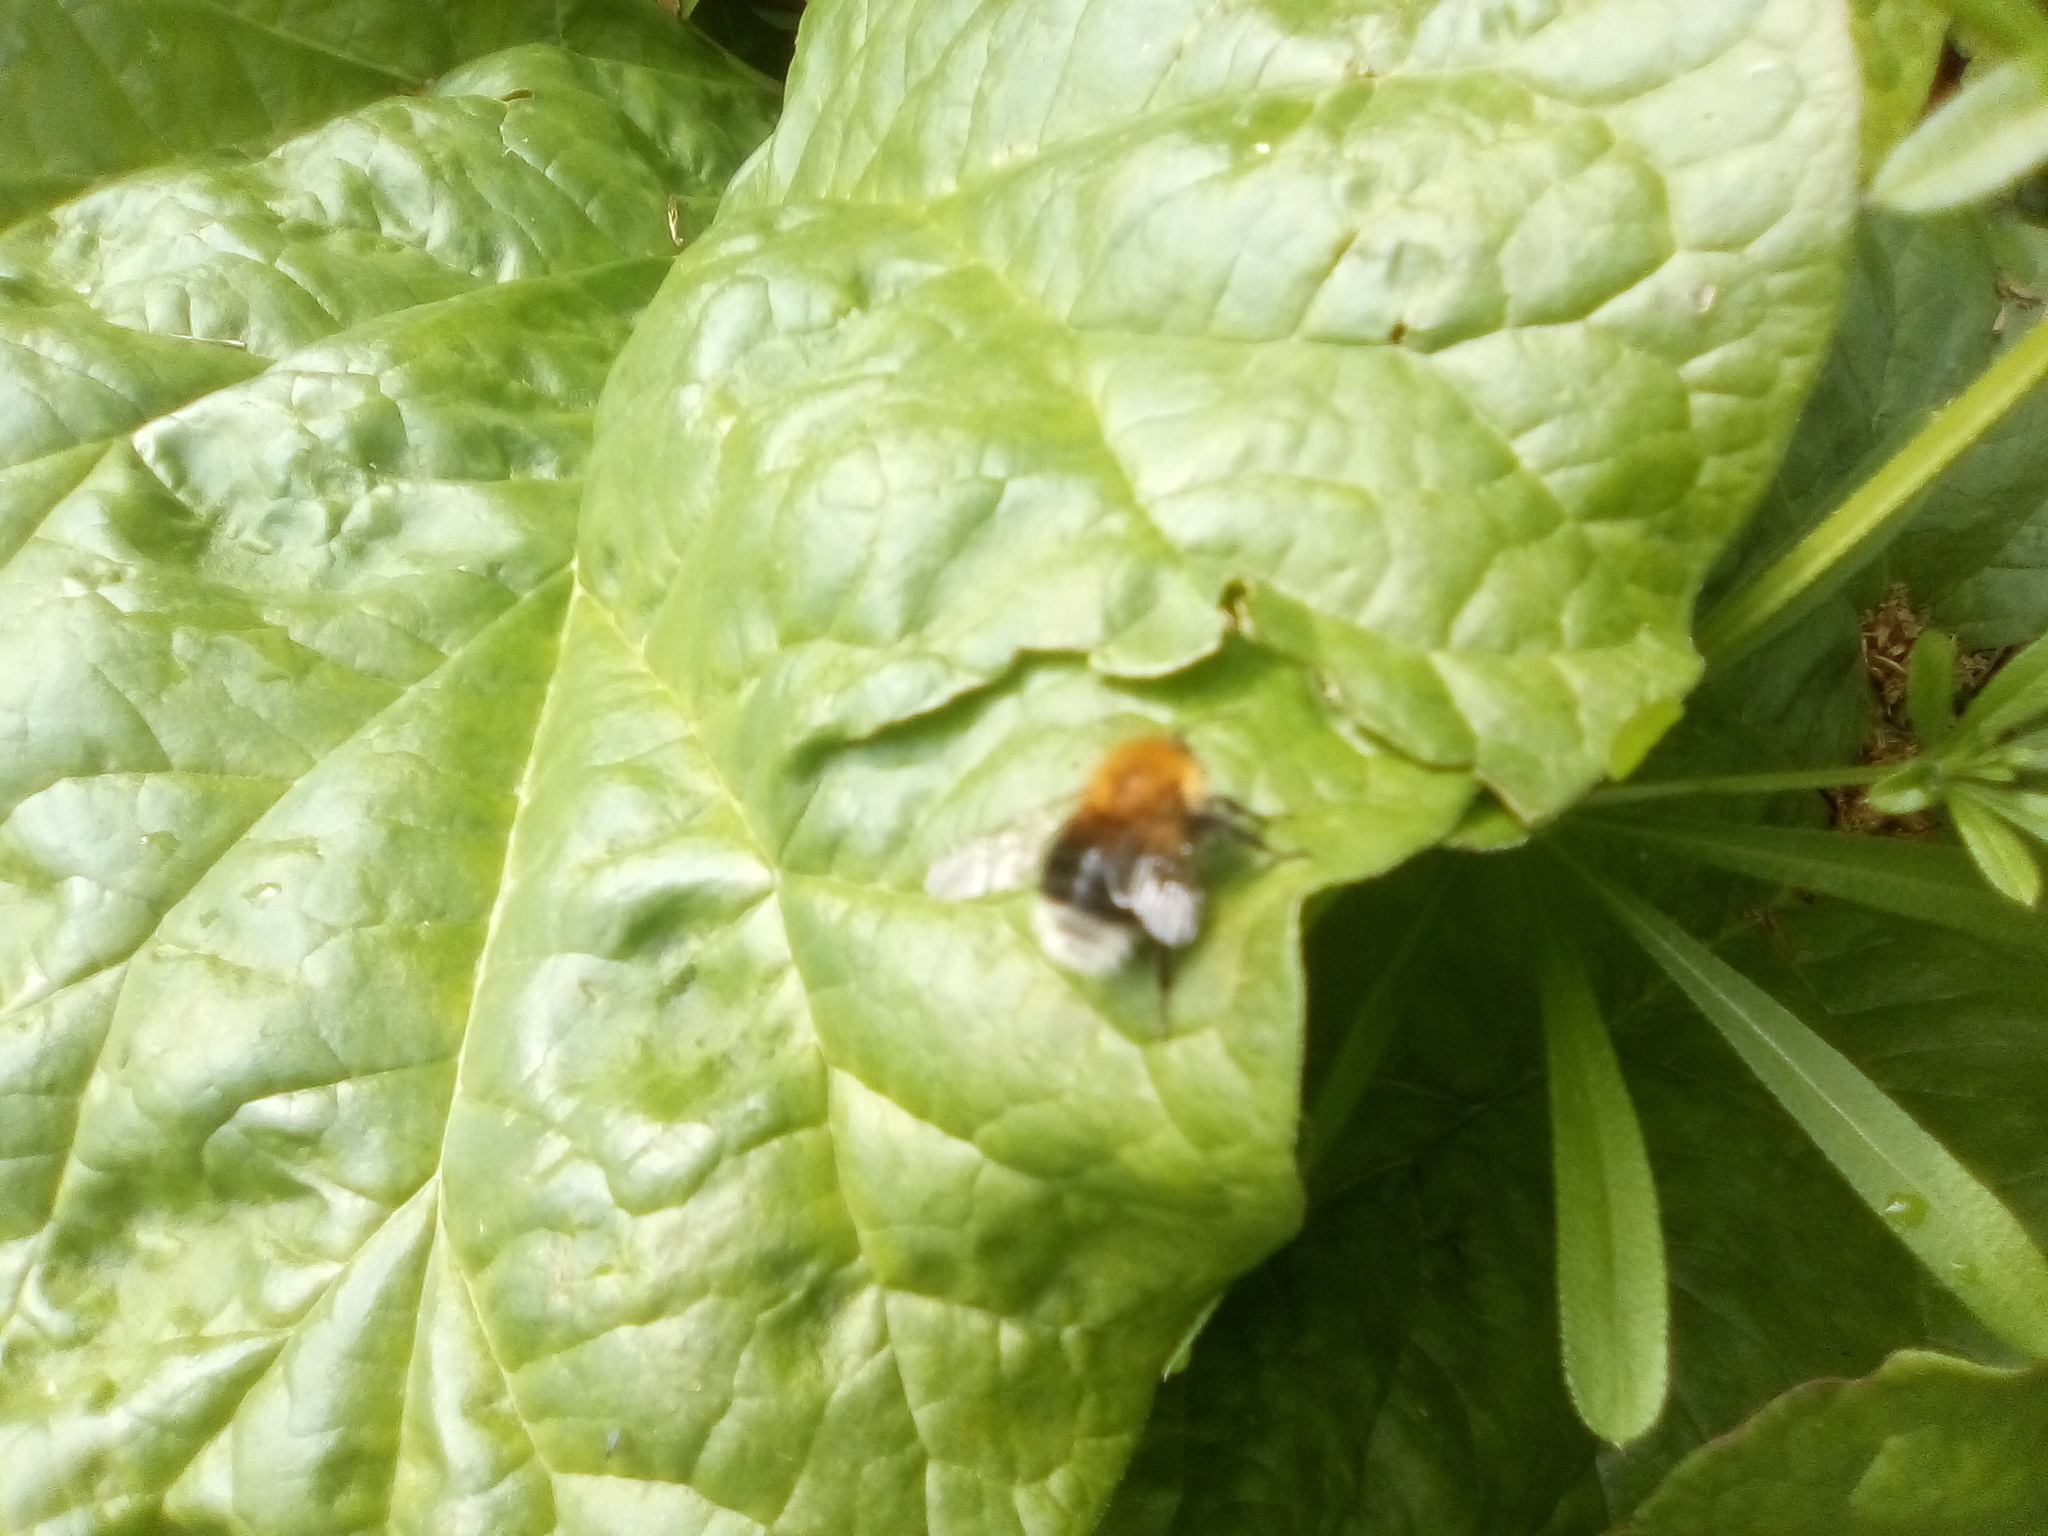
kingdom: Animalia
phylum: Arthropoda
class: Insecta
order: Hymenoptera
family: Apidae
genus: Bombus
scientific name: Bombus hypnorum
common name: New garden bumblebee
